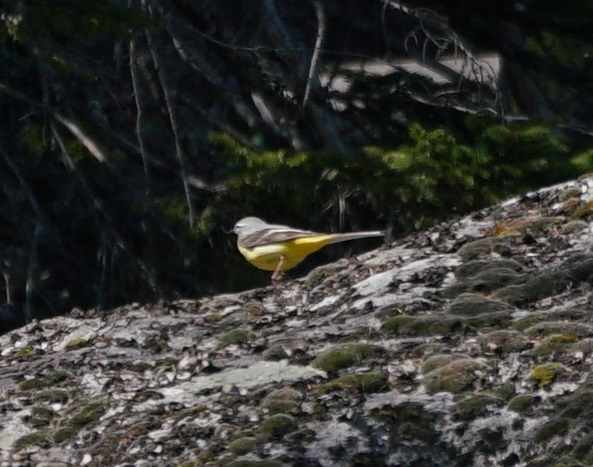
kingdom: Animalia
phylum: Chordata
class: Aves
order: Passeriformes
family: Motacillidae
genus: Motacilla
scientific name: Motacilla cinerea
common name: Grey wagtail
